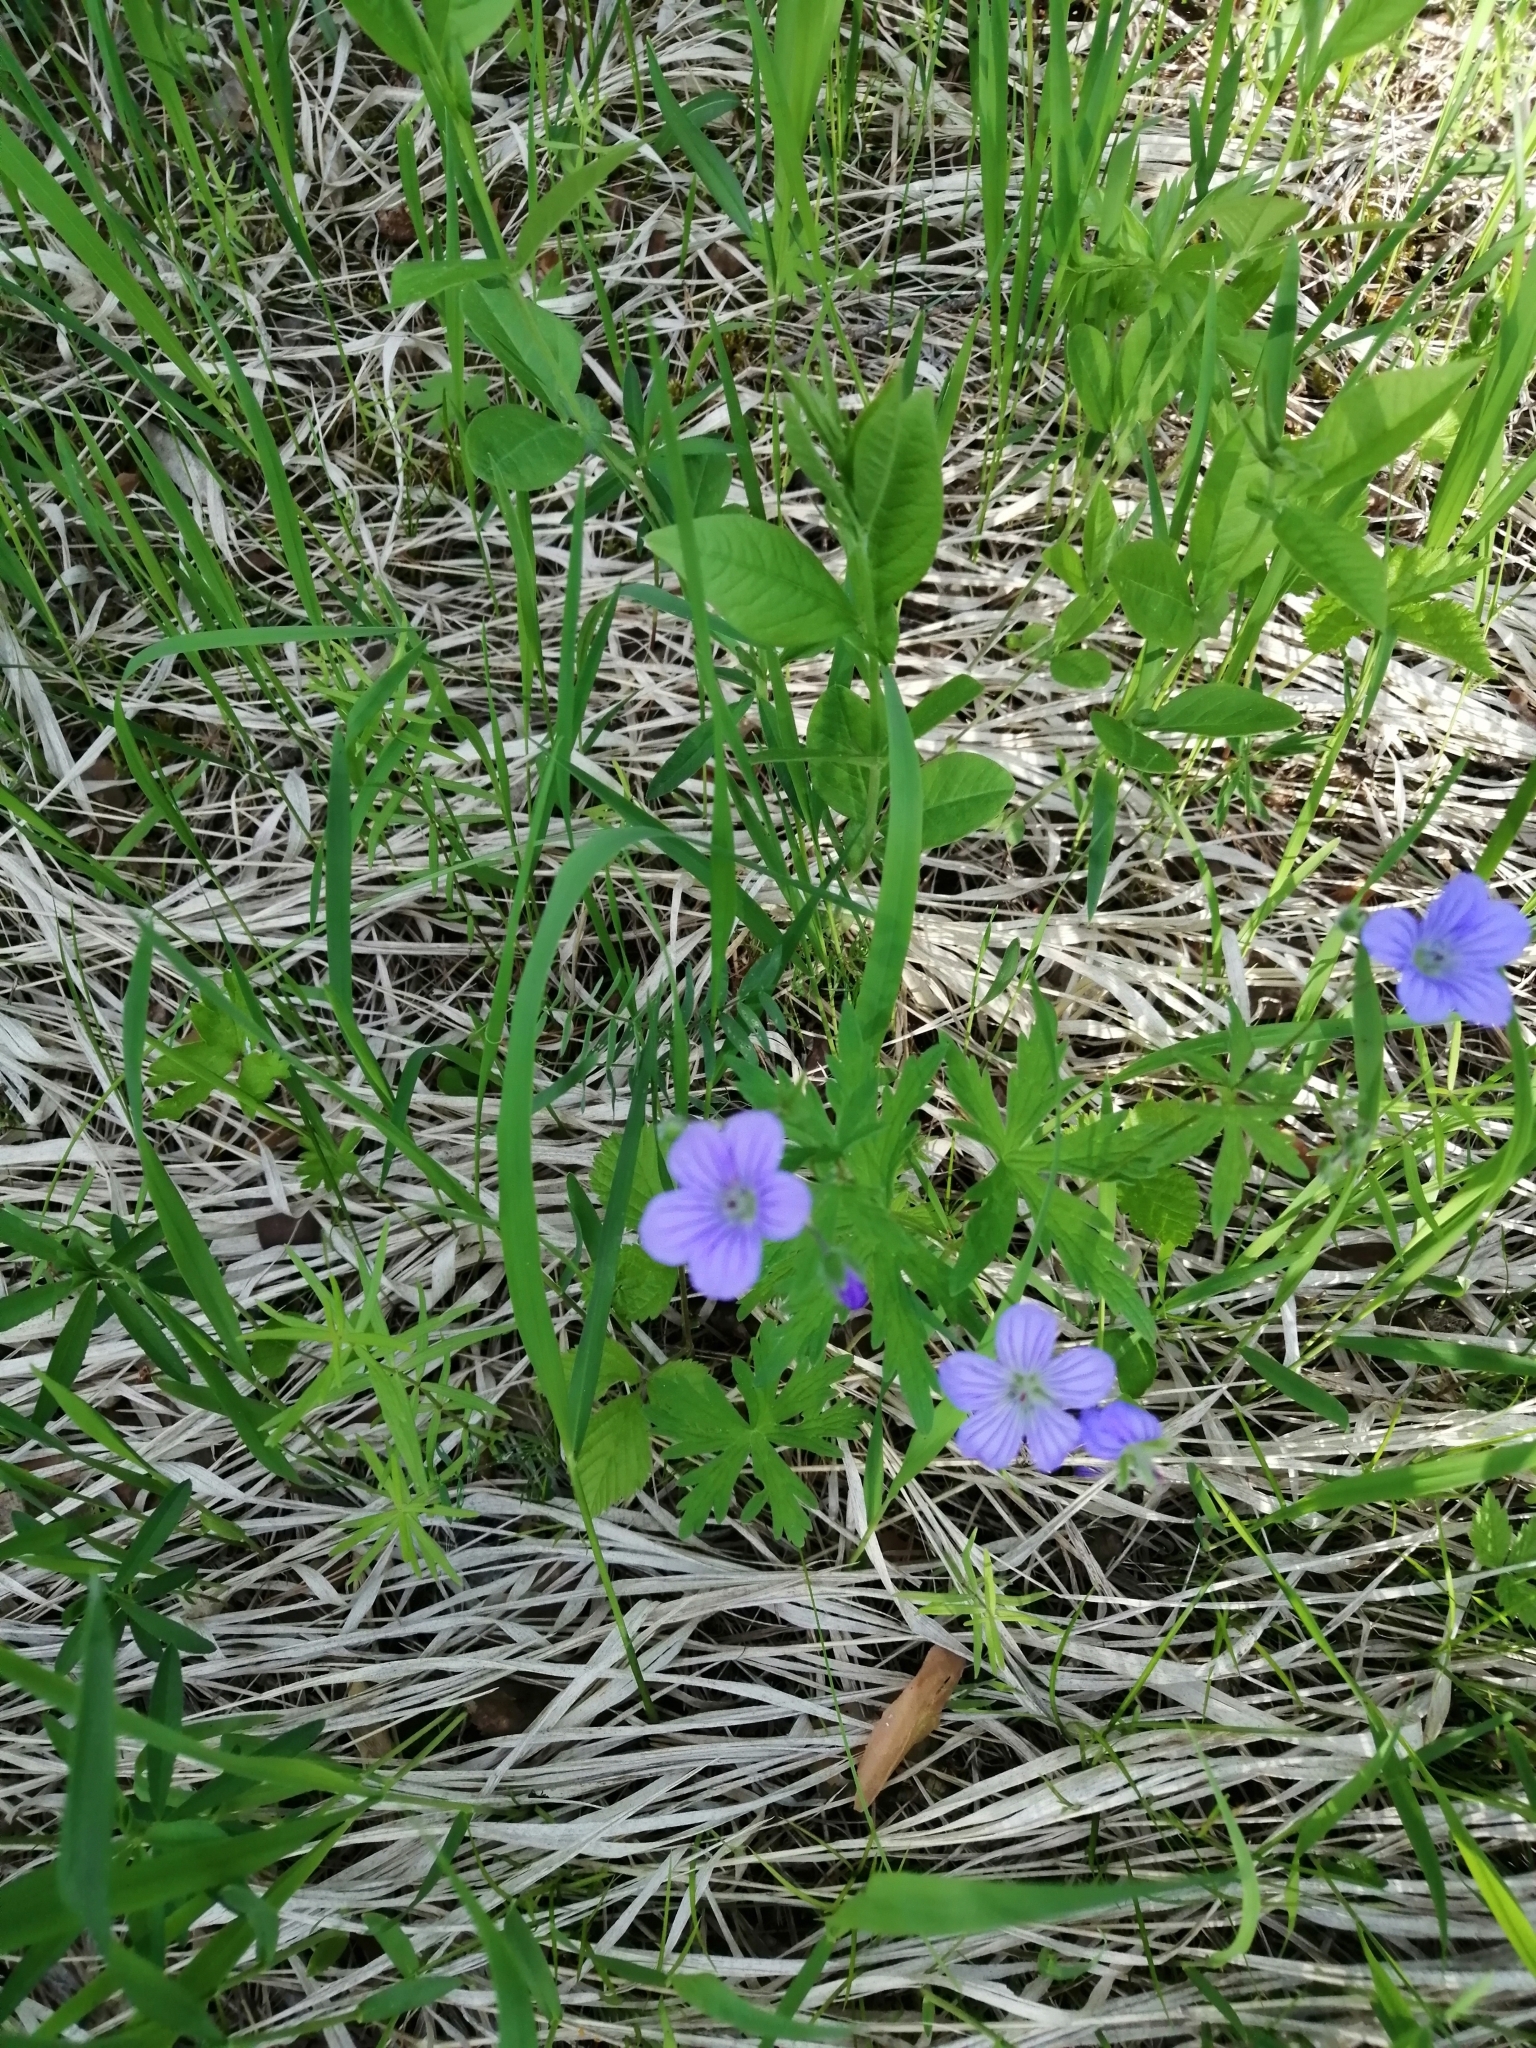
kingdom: Plantae
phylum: Tracheophyta
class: Magnoliopsida
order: Geraniales
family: Geraniaceae
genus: Geranium
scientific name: Geranium pseudosibiricum
